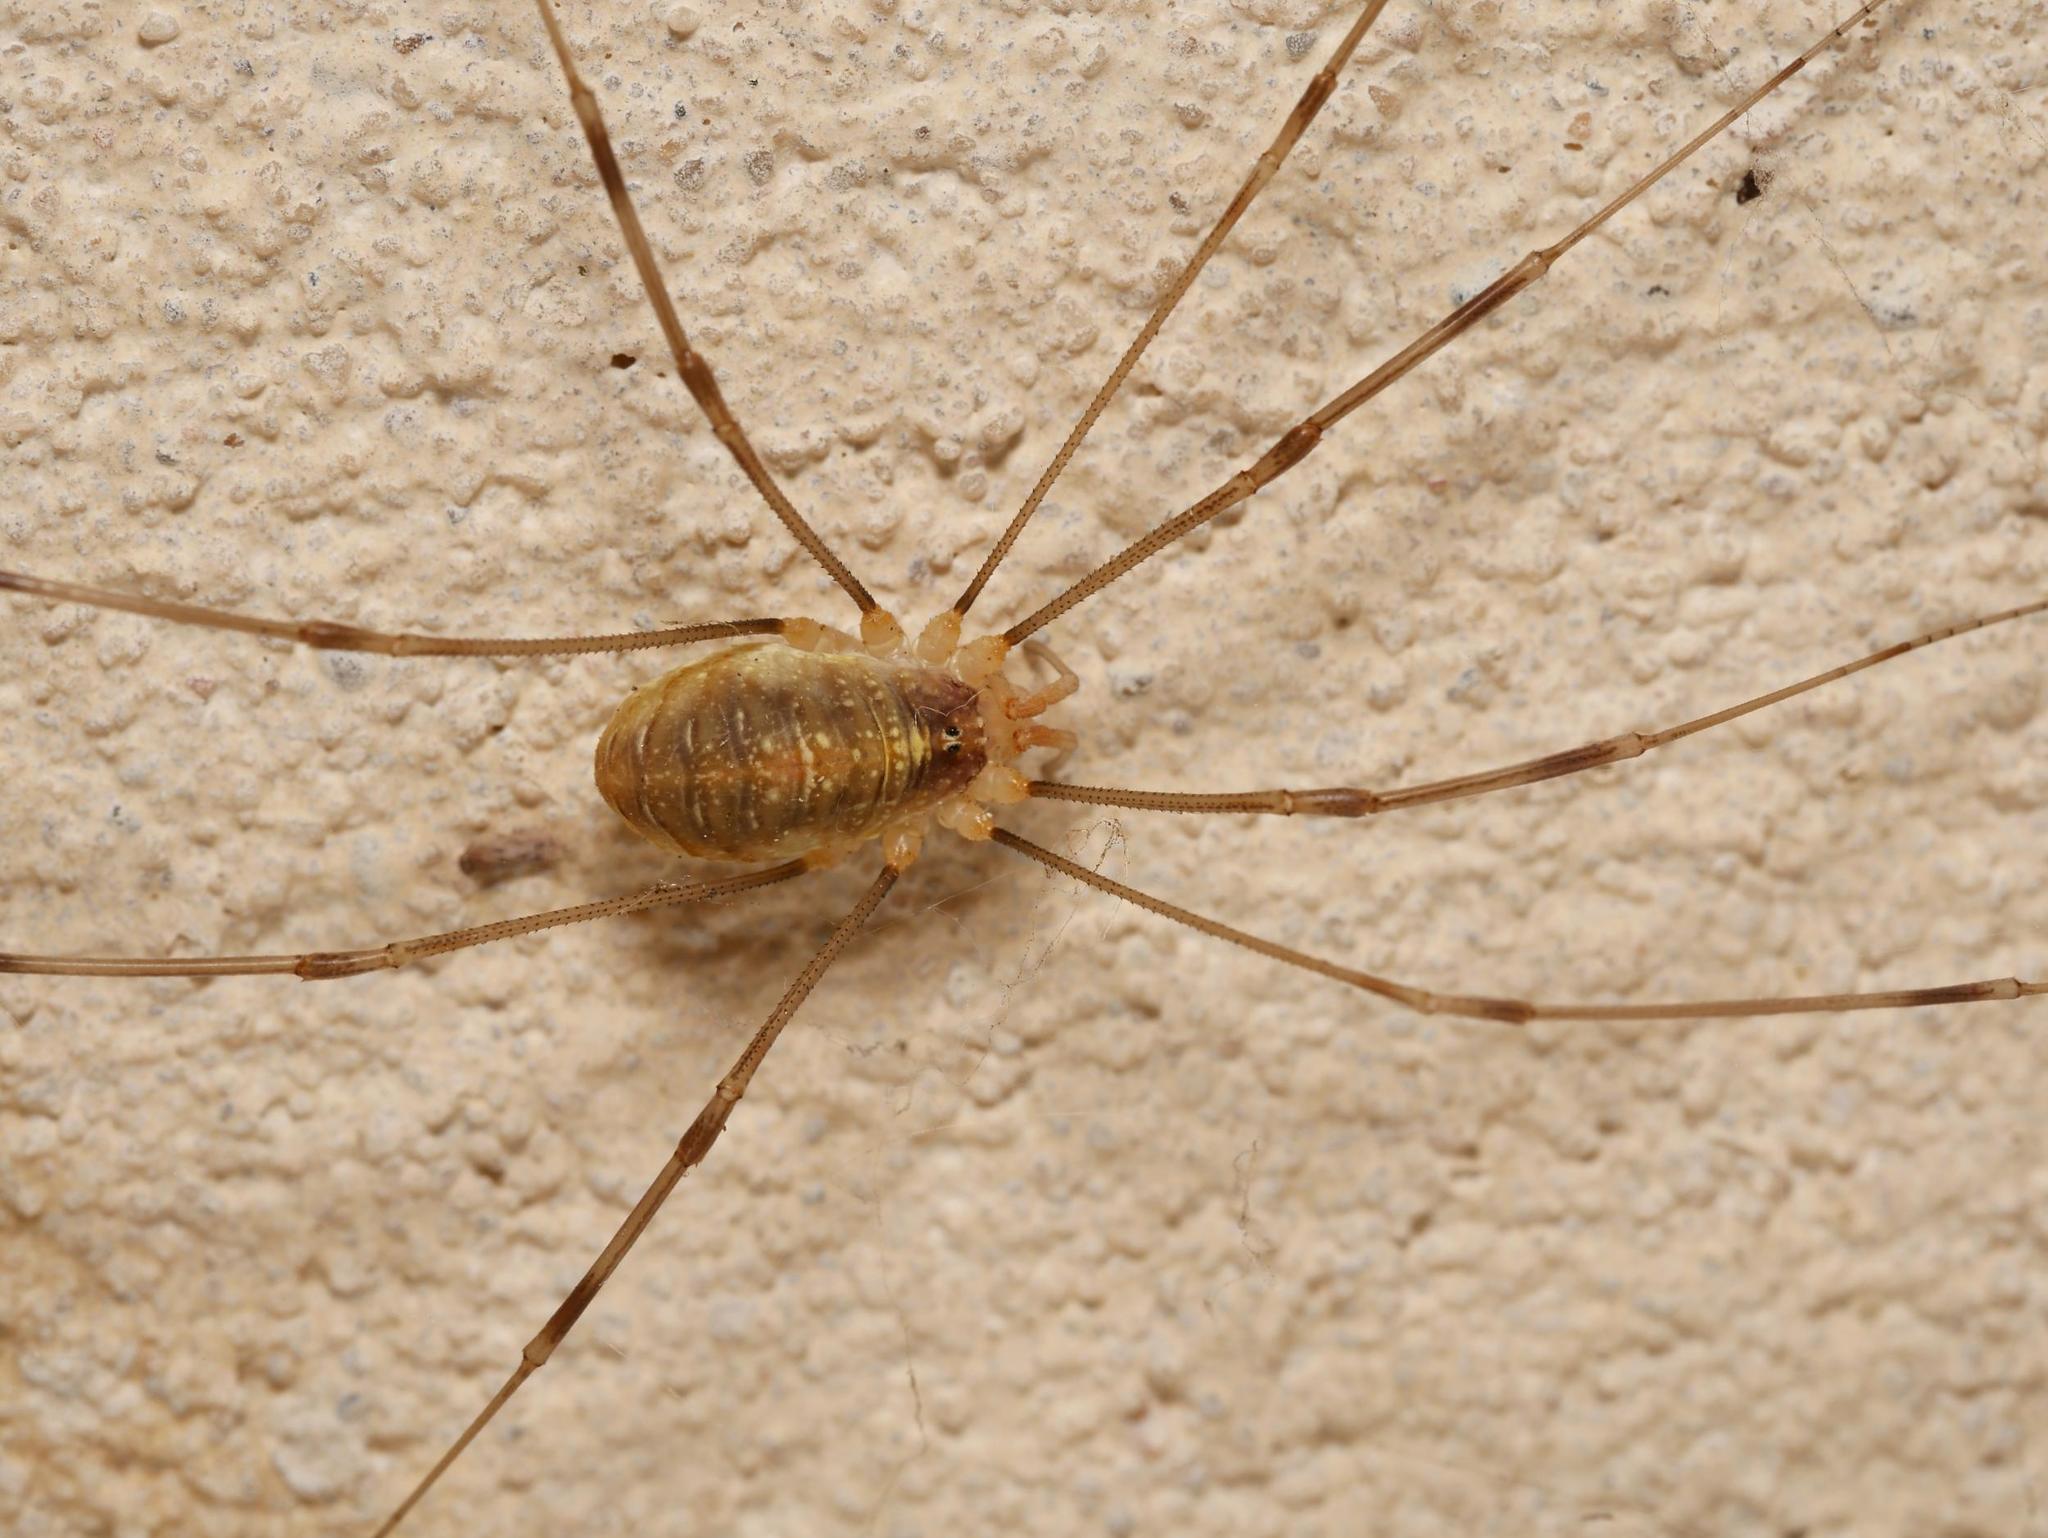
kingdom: Animalia
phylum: Arthropoda
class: Arachnida
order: Opiliones
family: Phalangiidae
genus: Opilio
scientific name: Opilio canestrinii
